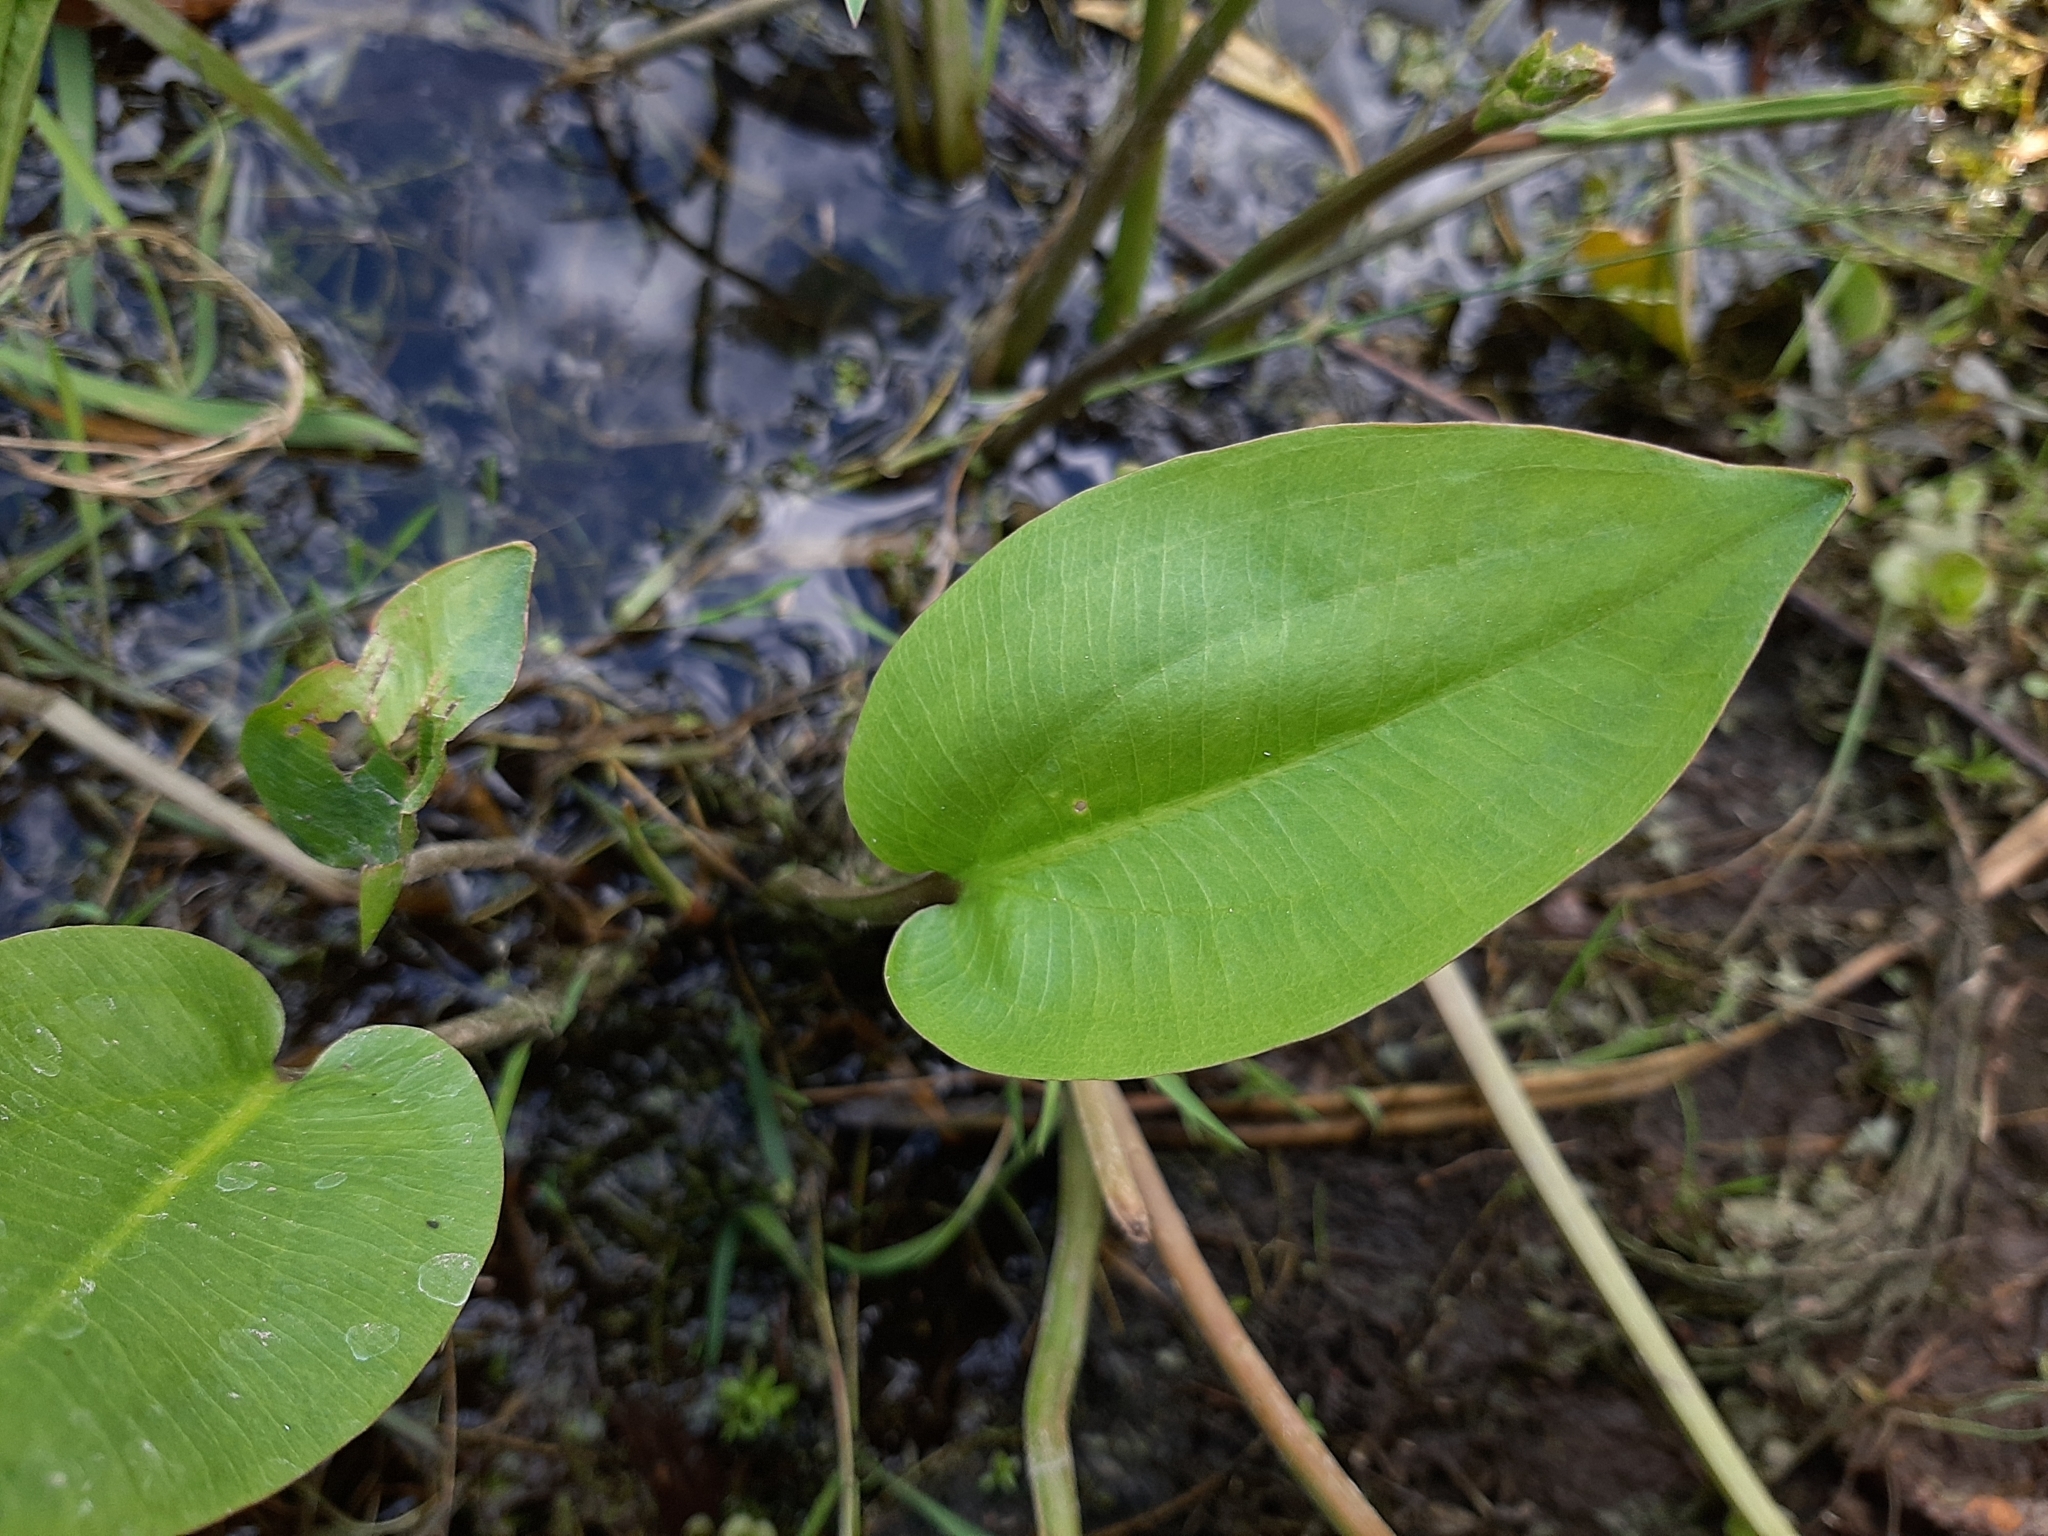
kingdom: Plantae
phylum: Tracheophyta
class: Liliopsida
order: Alismatales
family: Alismataceae
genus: Alisma
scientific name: Alisma plantago-aquatica
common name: Water-plantain
